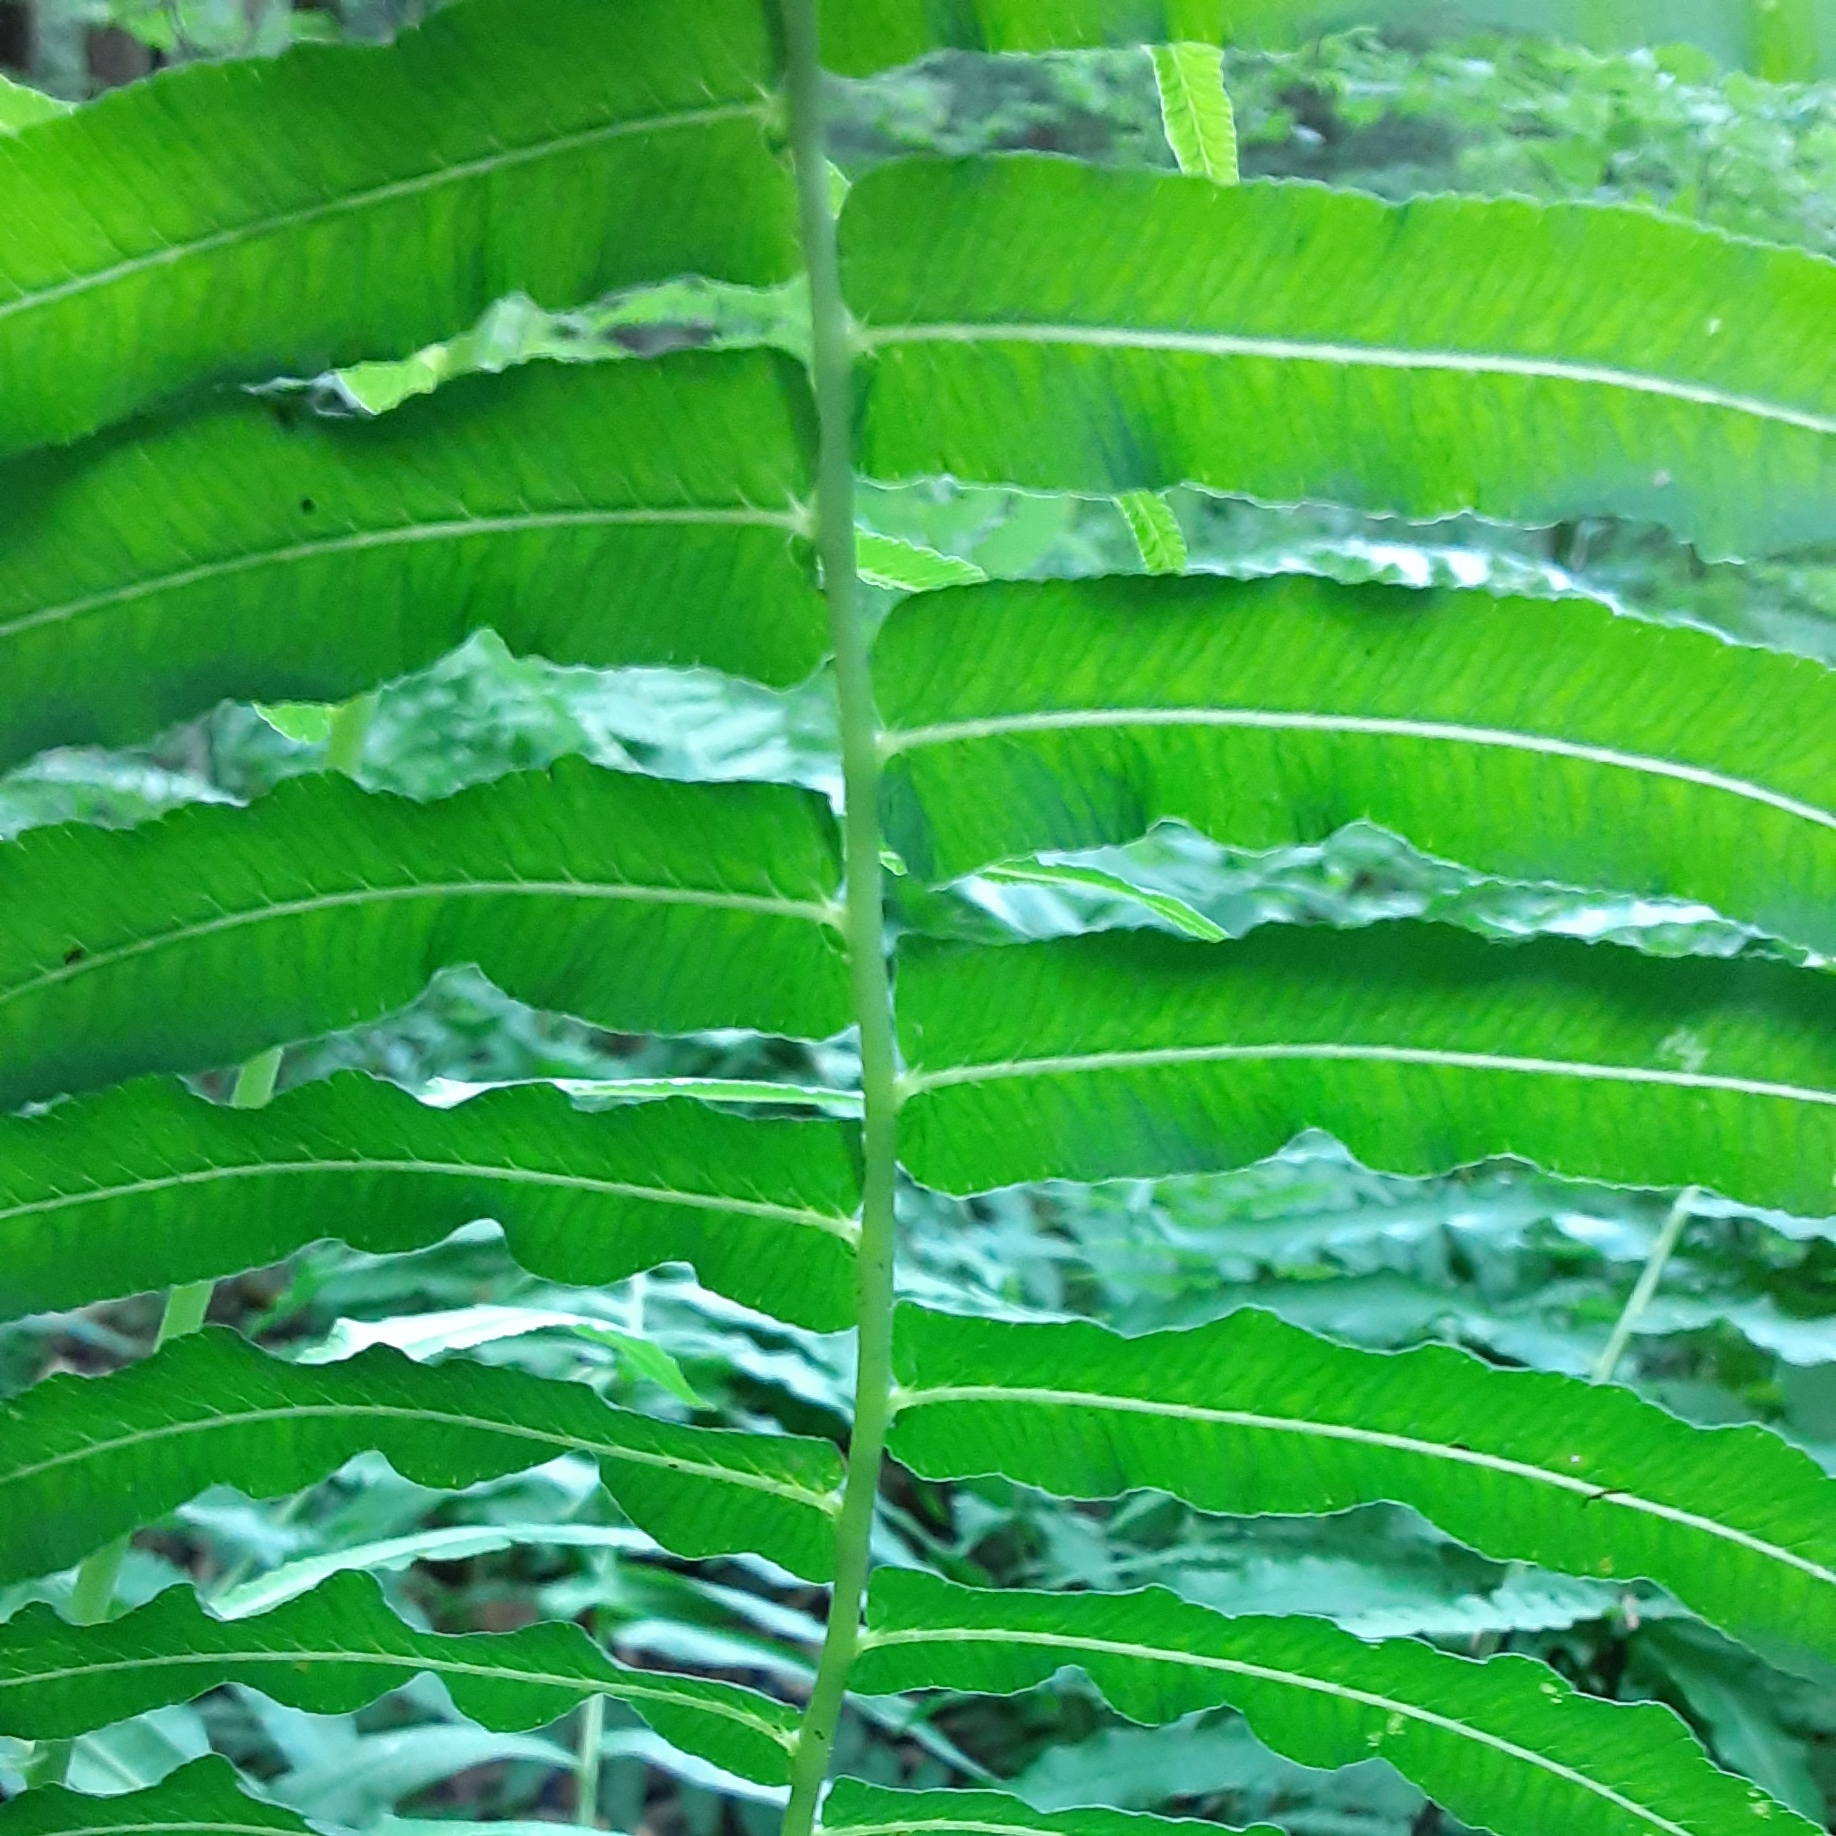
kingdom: Plantae
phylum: Tracheophyta
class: Polypodiopsida
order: Polypodiales
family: Diplaziopsidaceae
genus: Homalosorus
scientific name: Homalosorus pycnocarpos
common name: Glade fern
